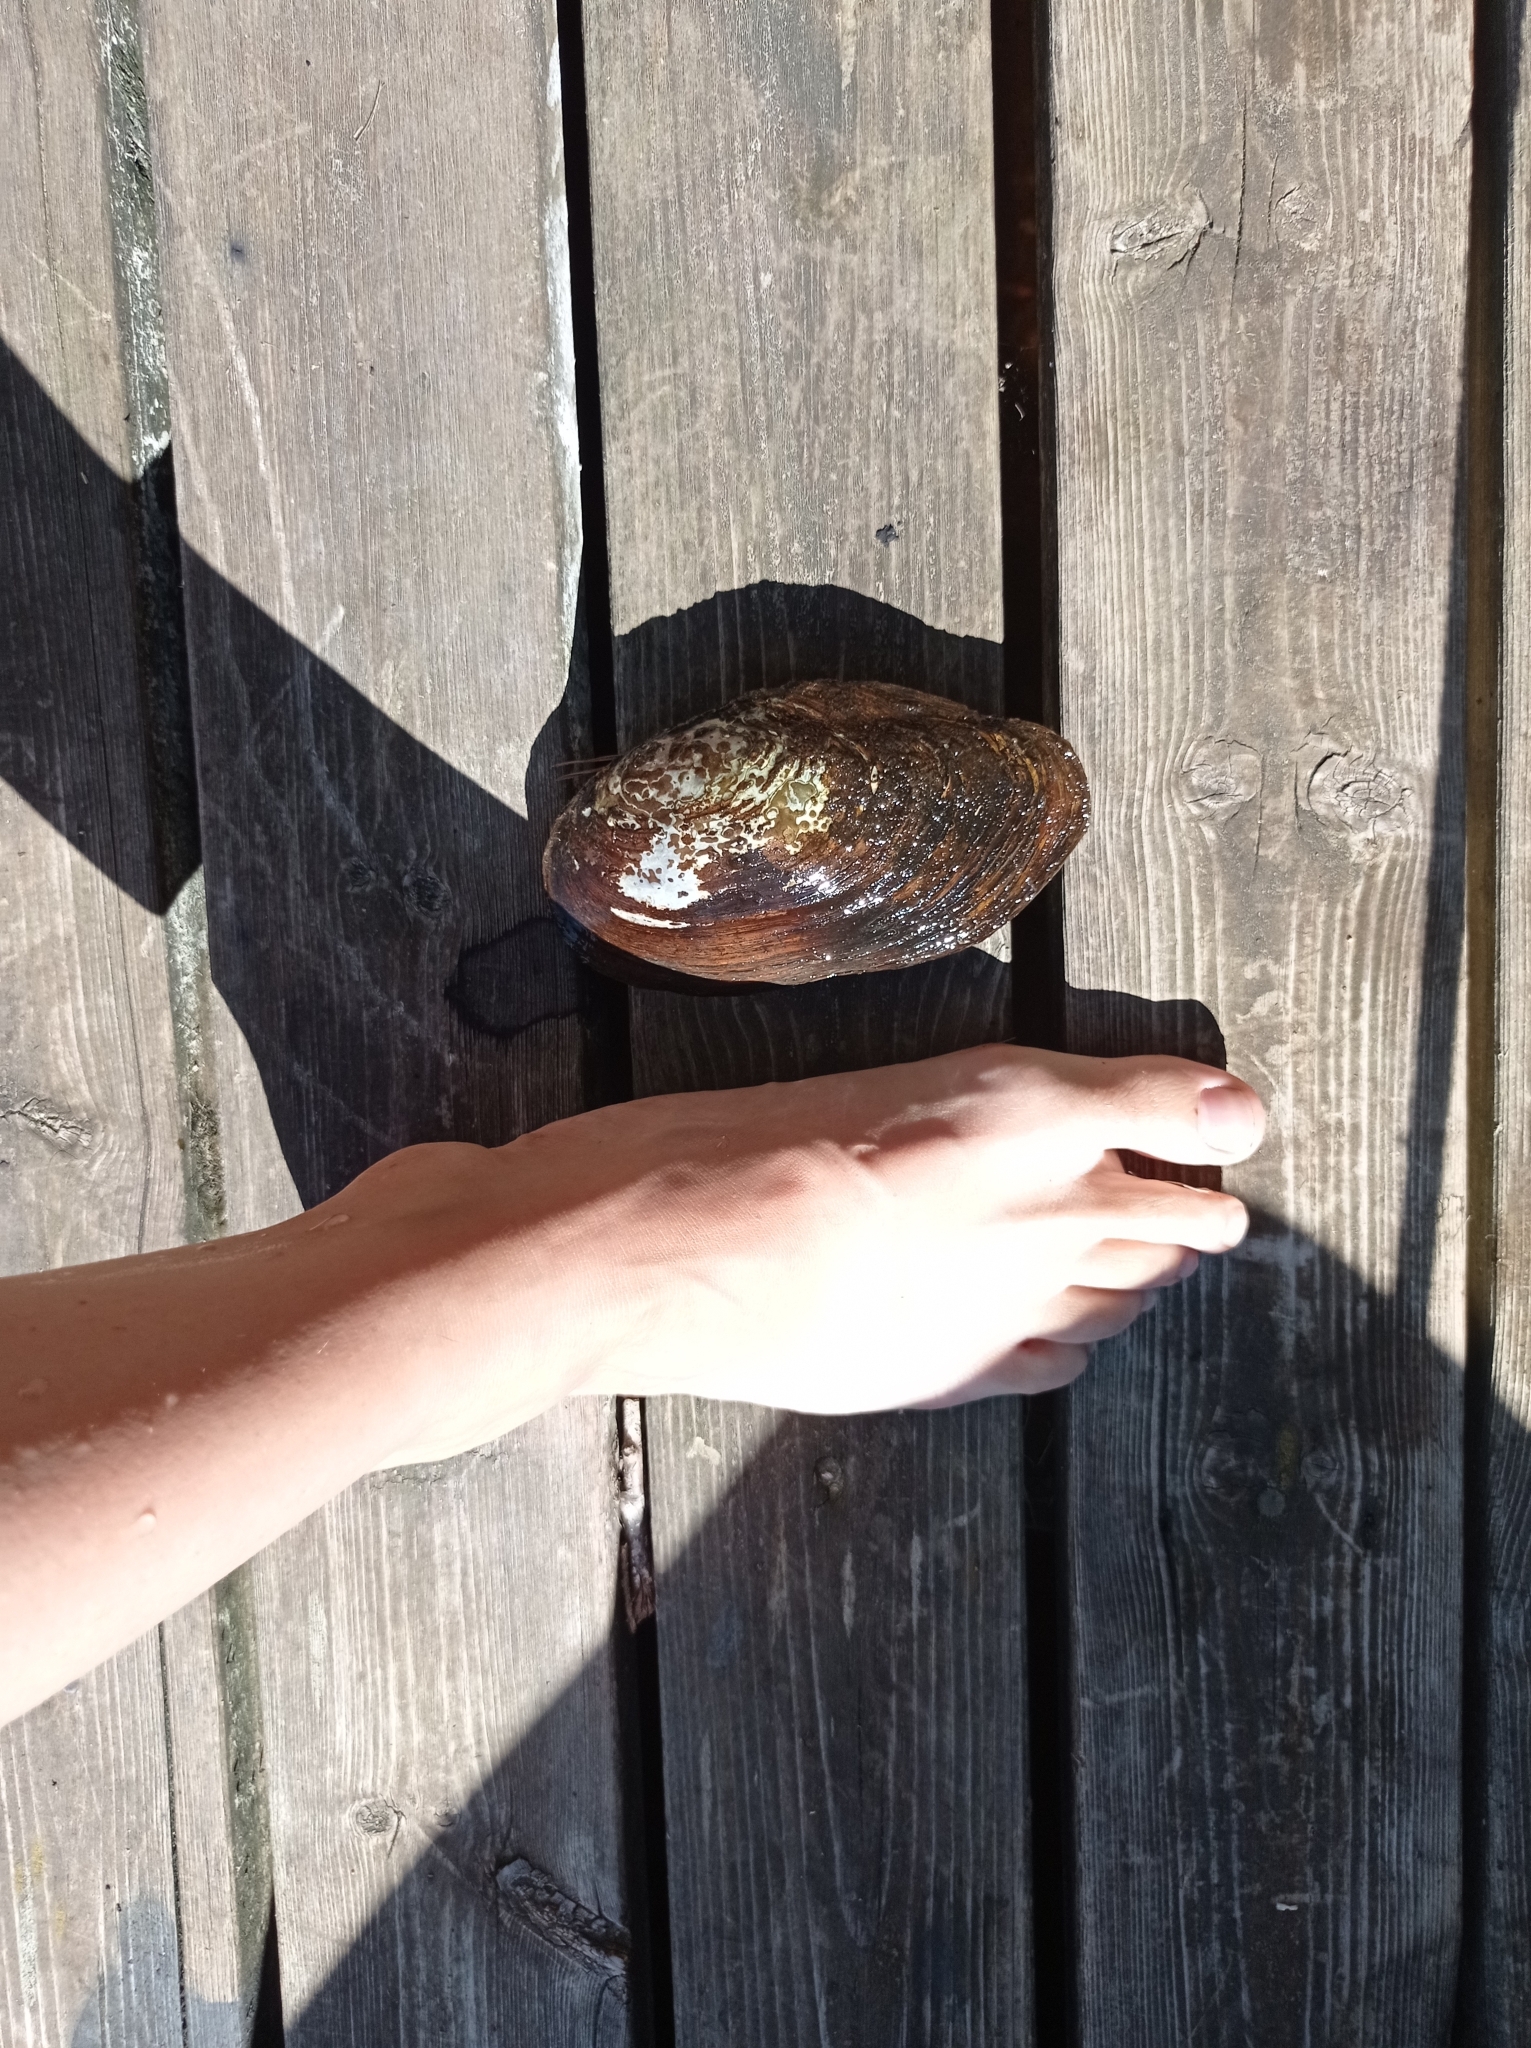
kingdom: Animalia
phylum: Mollusca
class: Bivalvia
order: Unionida
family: Unionidae
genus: Anodonta
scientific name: Anodonta anatina
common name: Duck mussel
